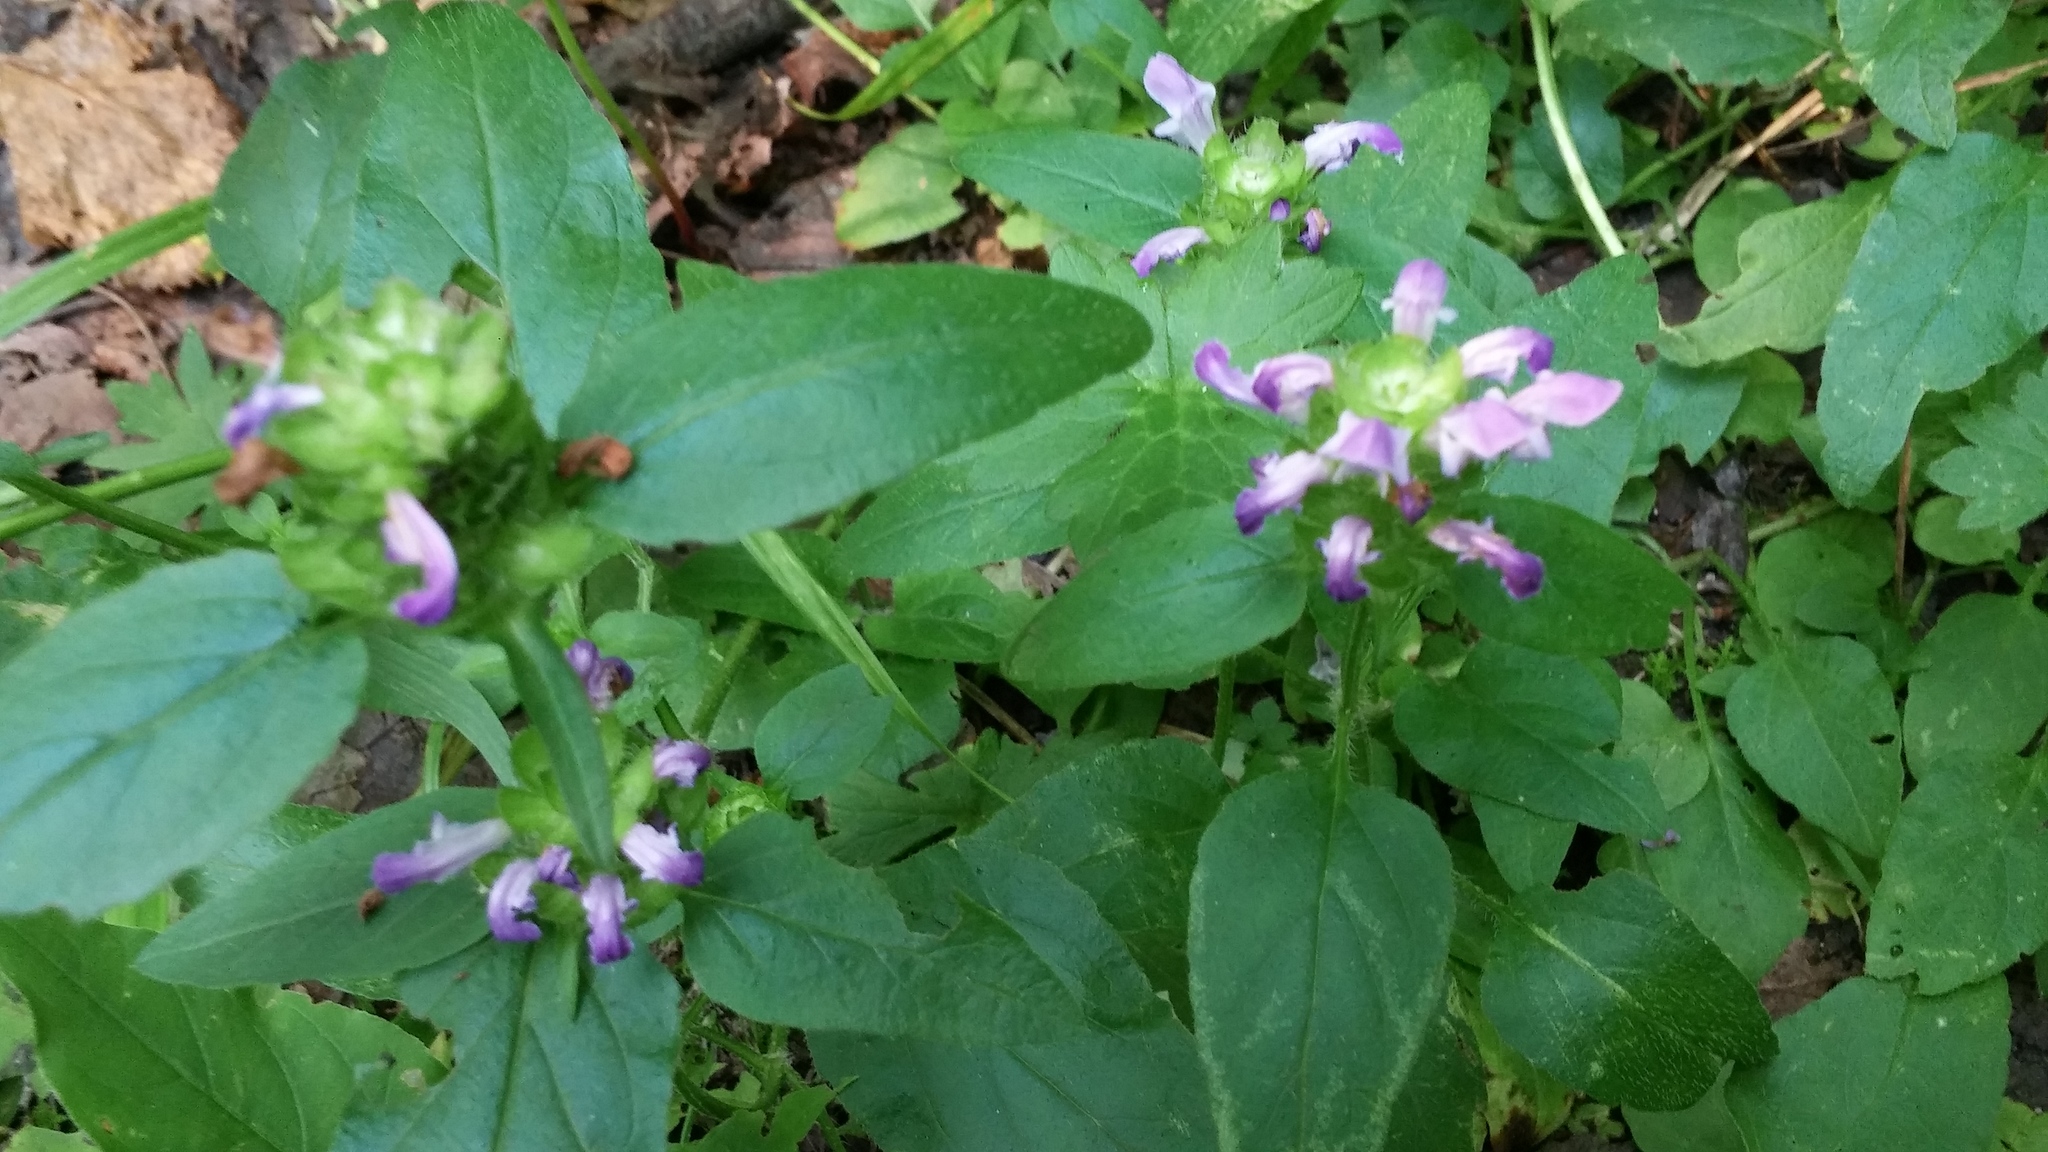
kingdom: Plantae
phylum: Tracheophyta
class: Magnoliopsida
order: Lamiales
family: Lamiaceae
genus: Prunella
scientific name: Prunella vulgaris
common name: Heal-all
